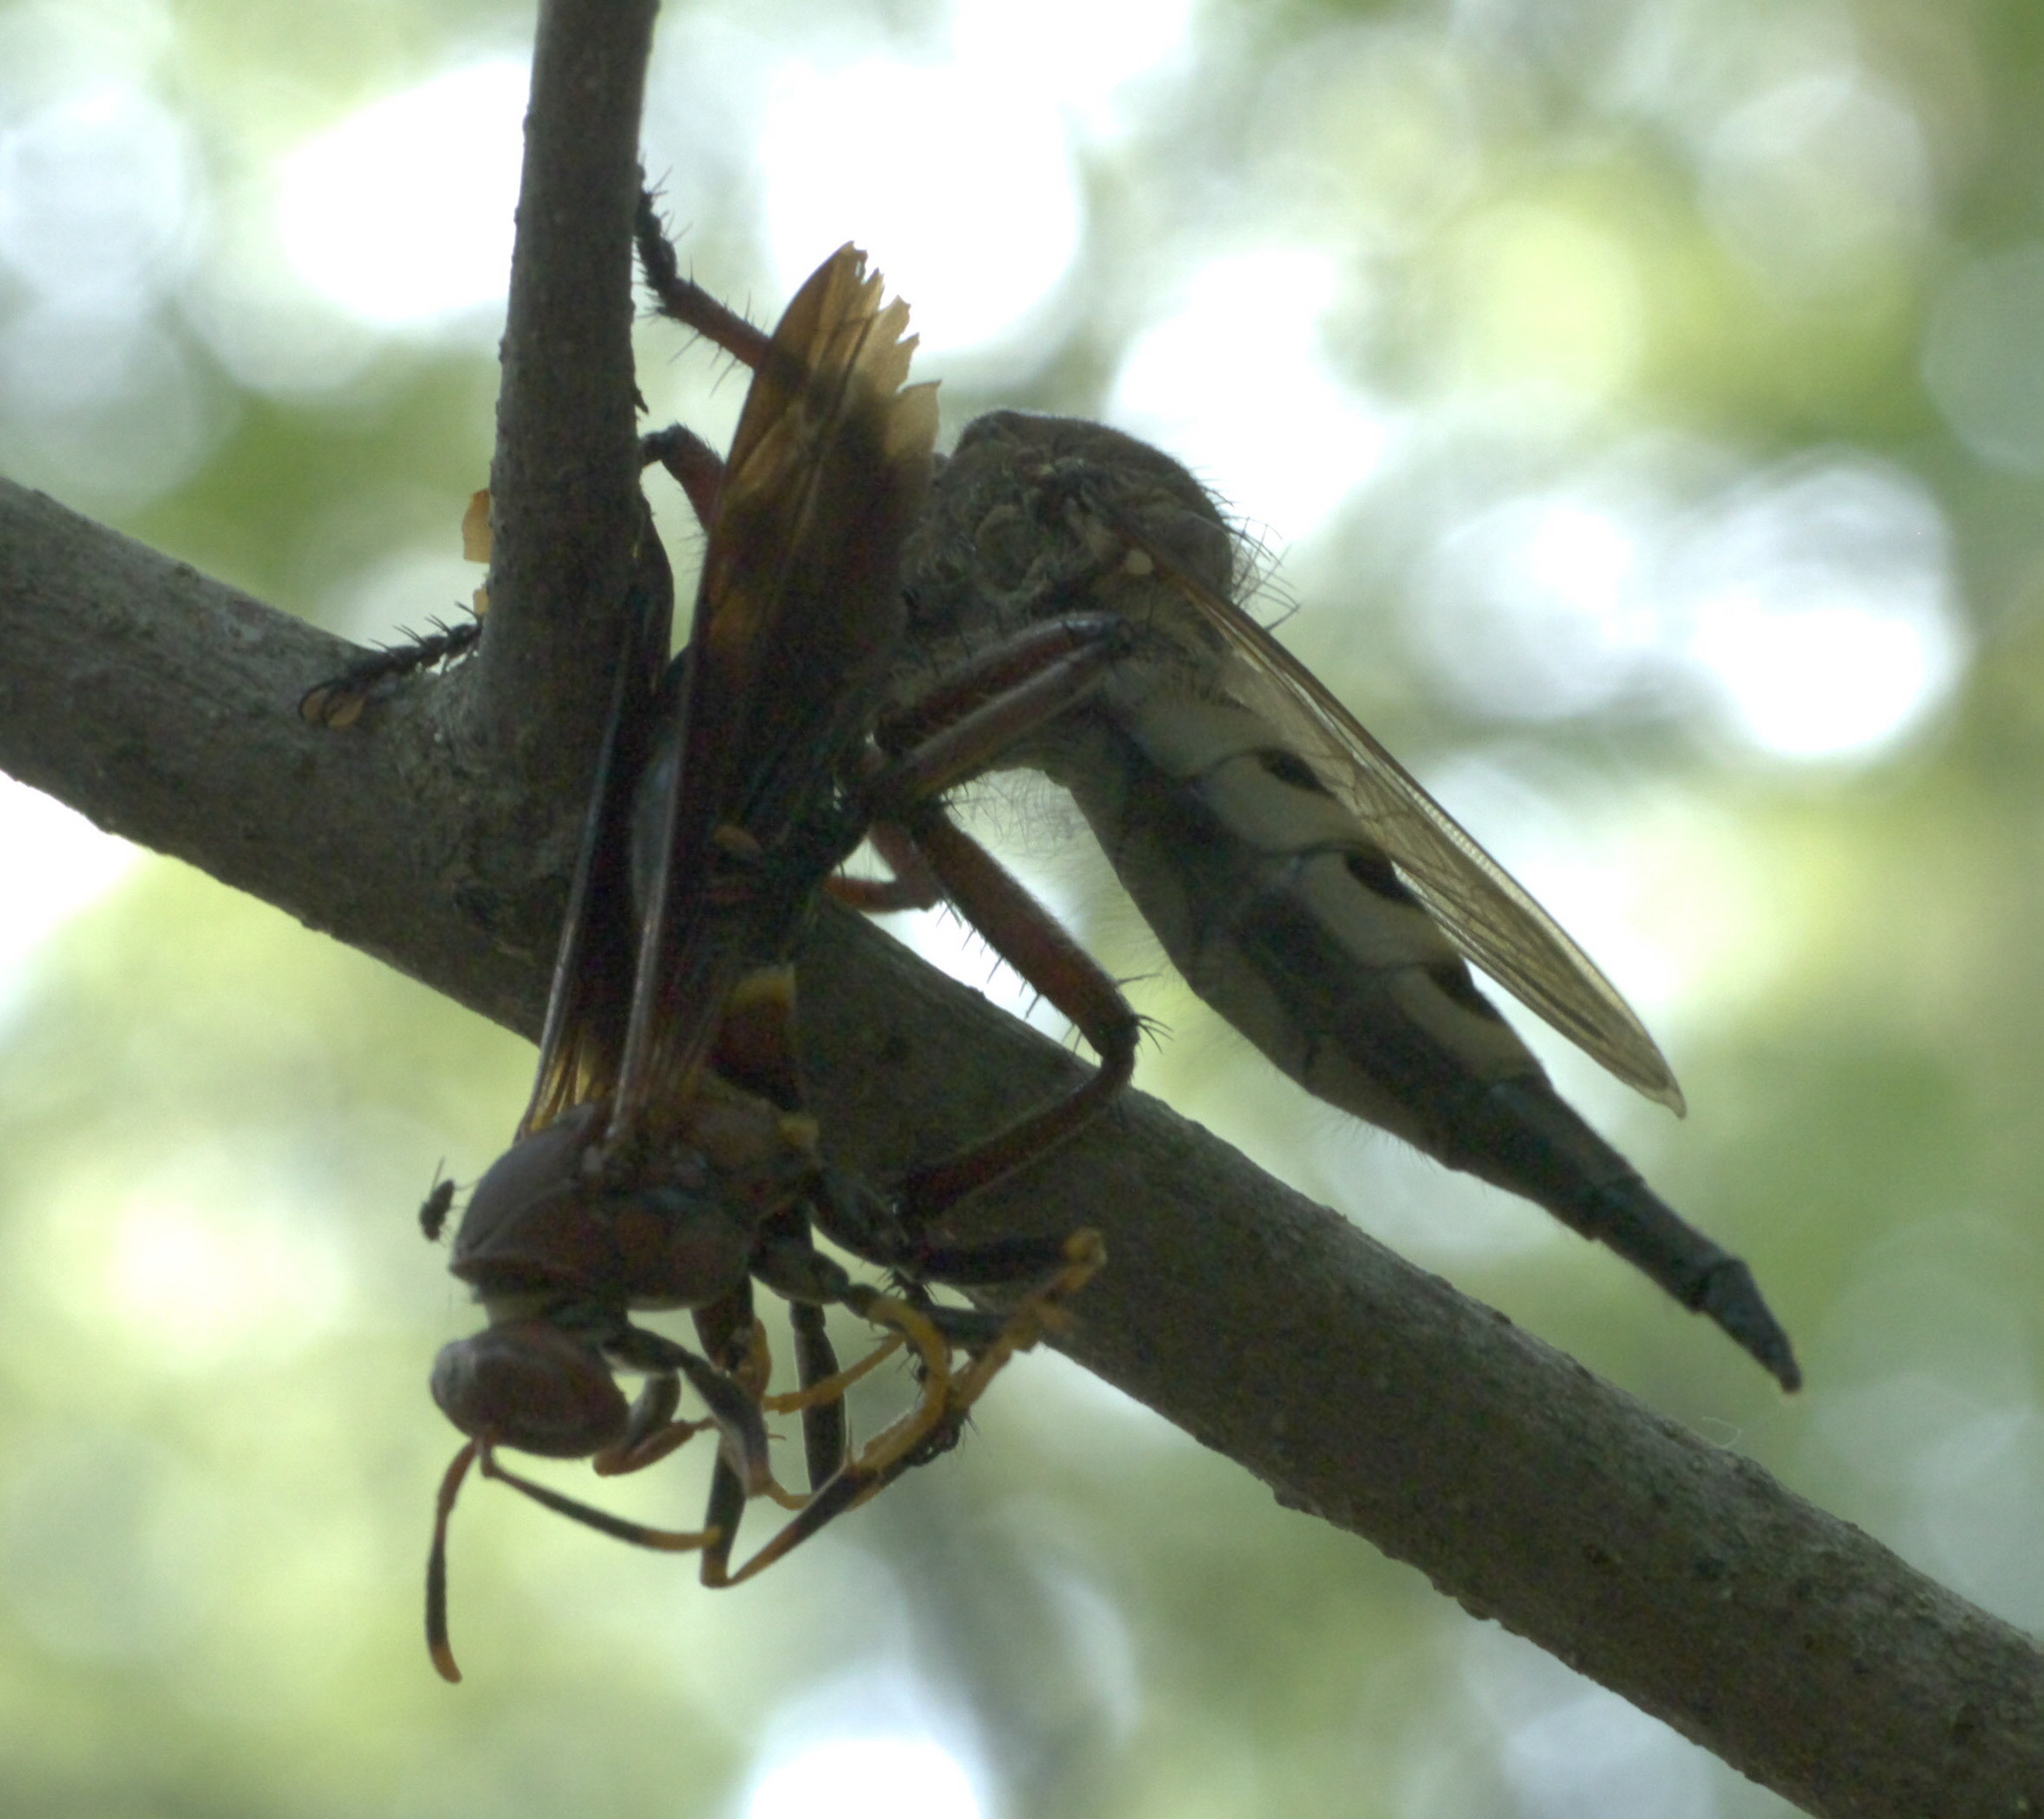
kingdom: Animalia
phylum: Arthropoda
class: Insecta
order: Diptera
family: Asilidae
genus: Promachus
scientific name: Promachus hinei
